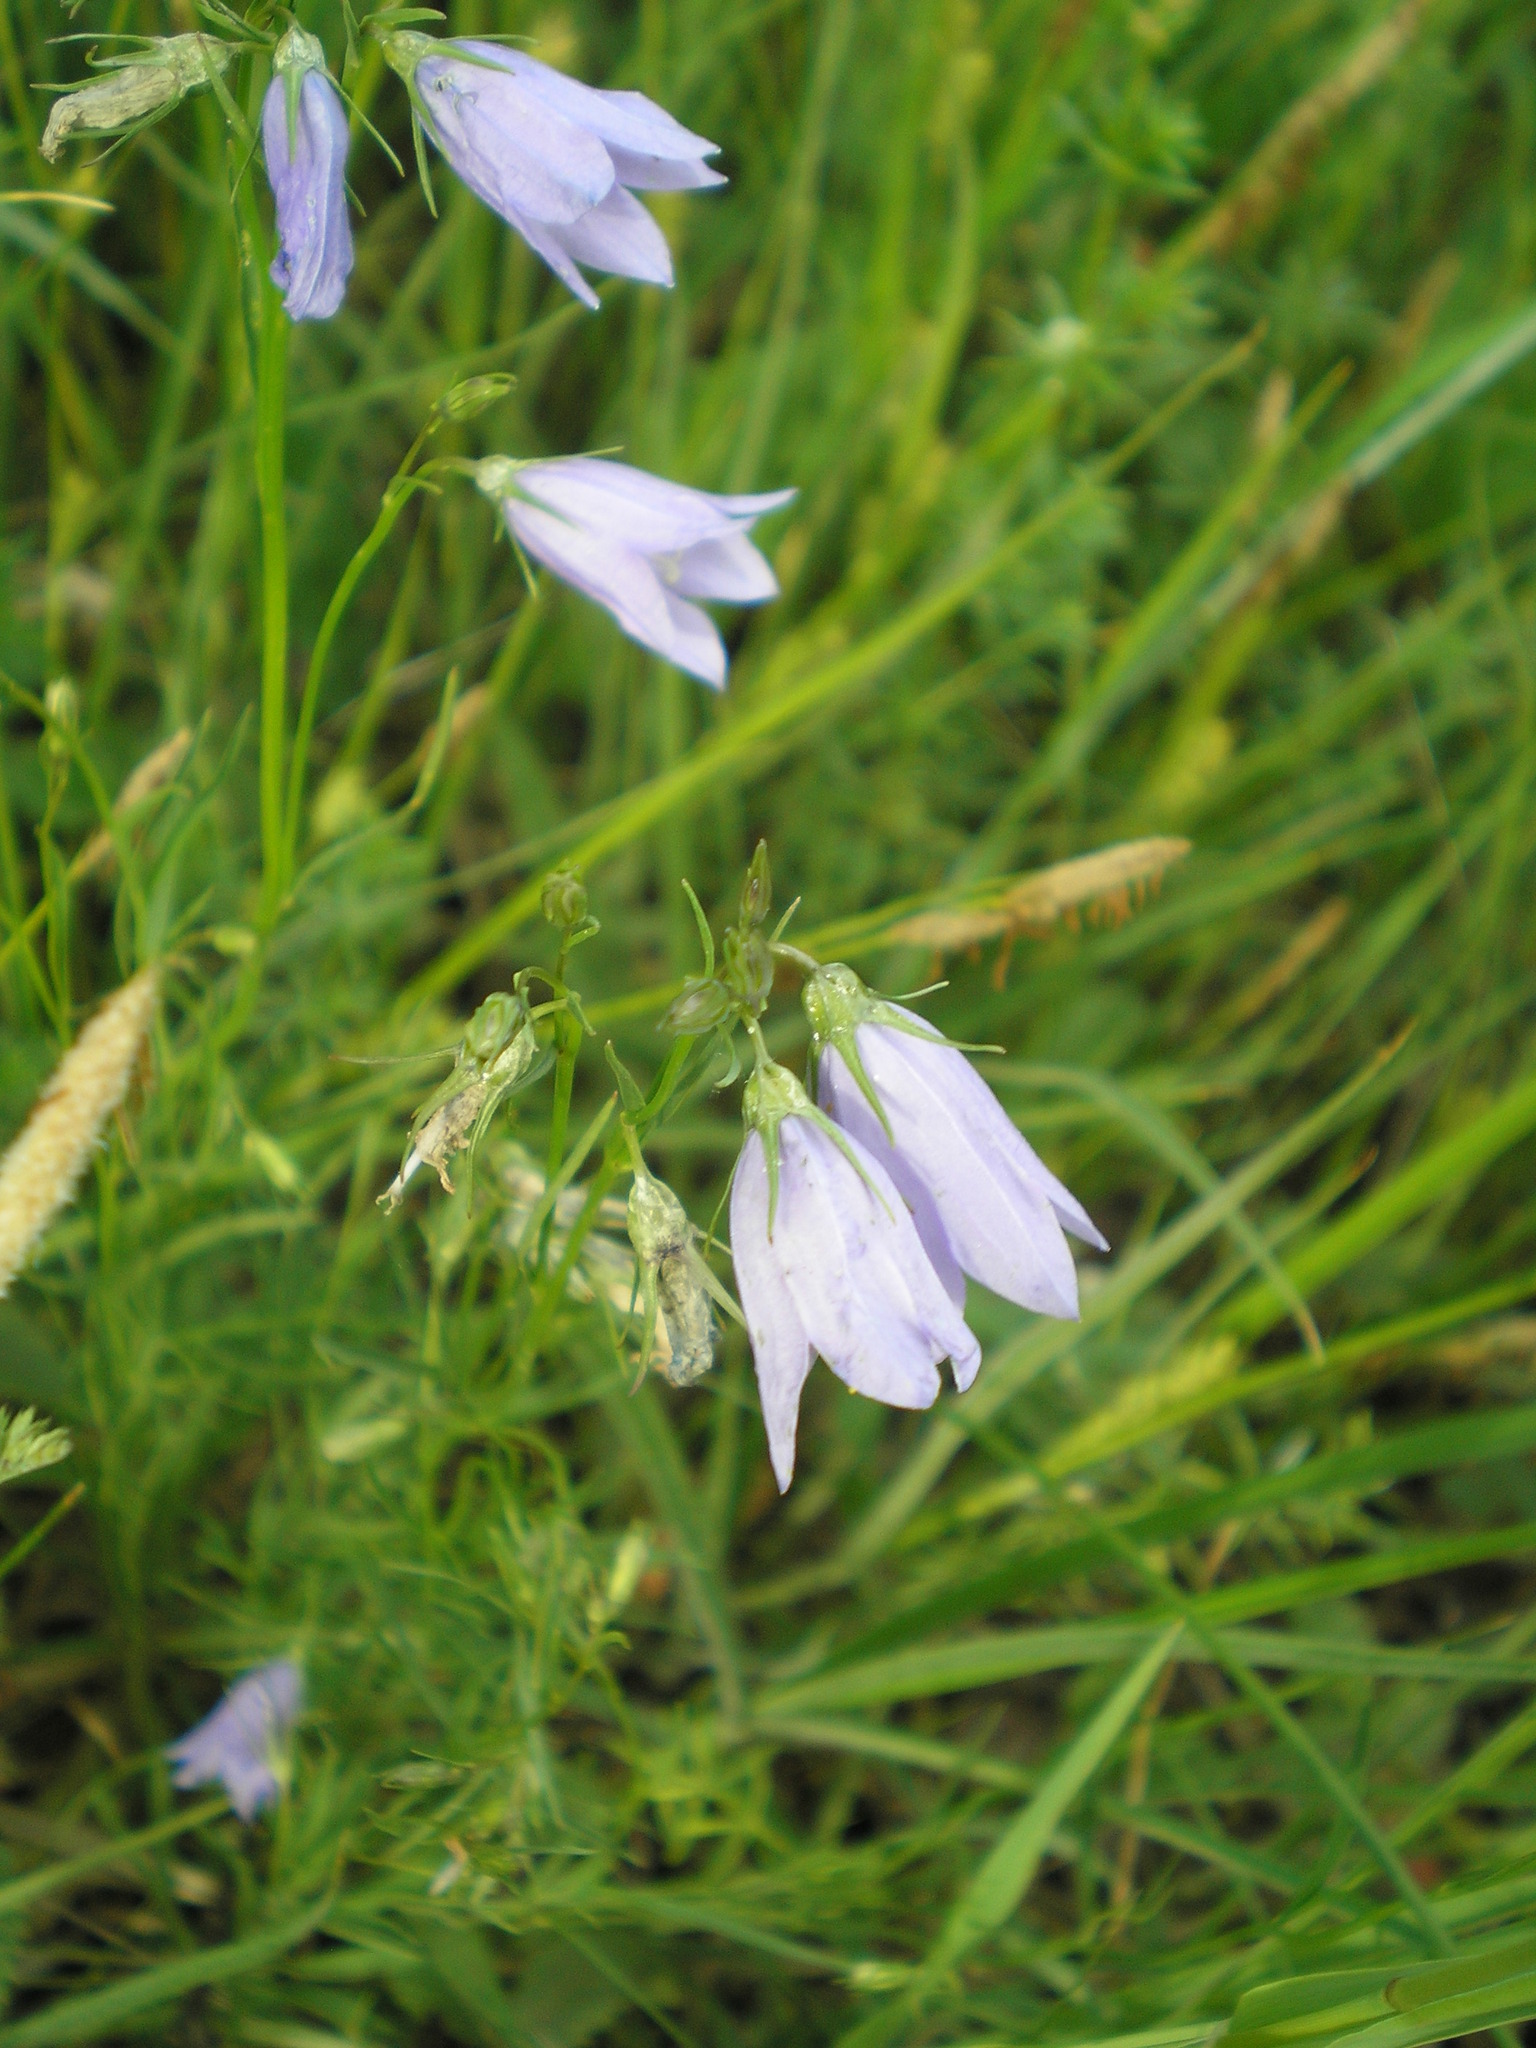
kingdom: Plantae
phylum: Tracheophyta
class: Magnoliopsida
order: Asterales
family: Campanulaceae
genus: Campanula
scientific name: Campanula rotundifolia
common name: Harebell
